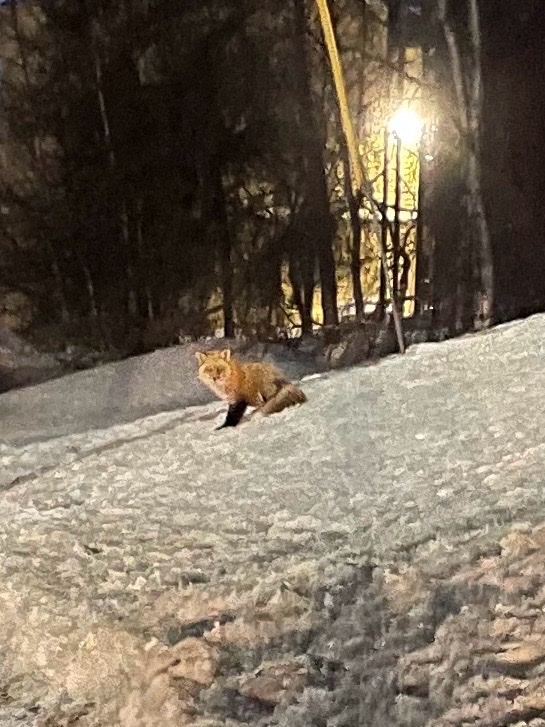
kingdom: Animalia
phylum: Chordata
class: Mammalia
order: Carnivora
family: Canidae
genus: Vulpes
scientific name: Vulpes vulpes
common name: Red fox
